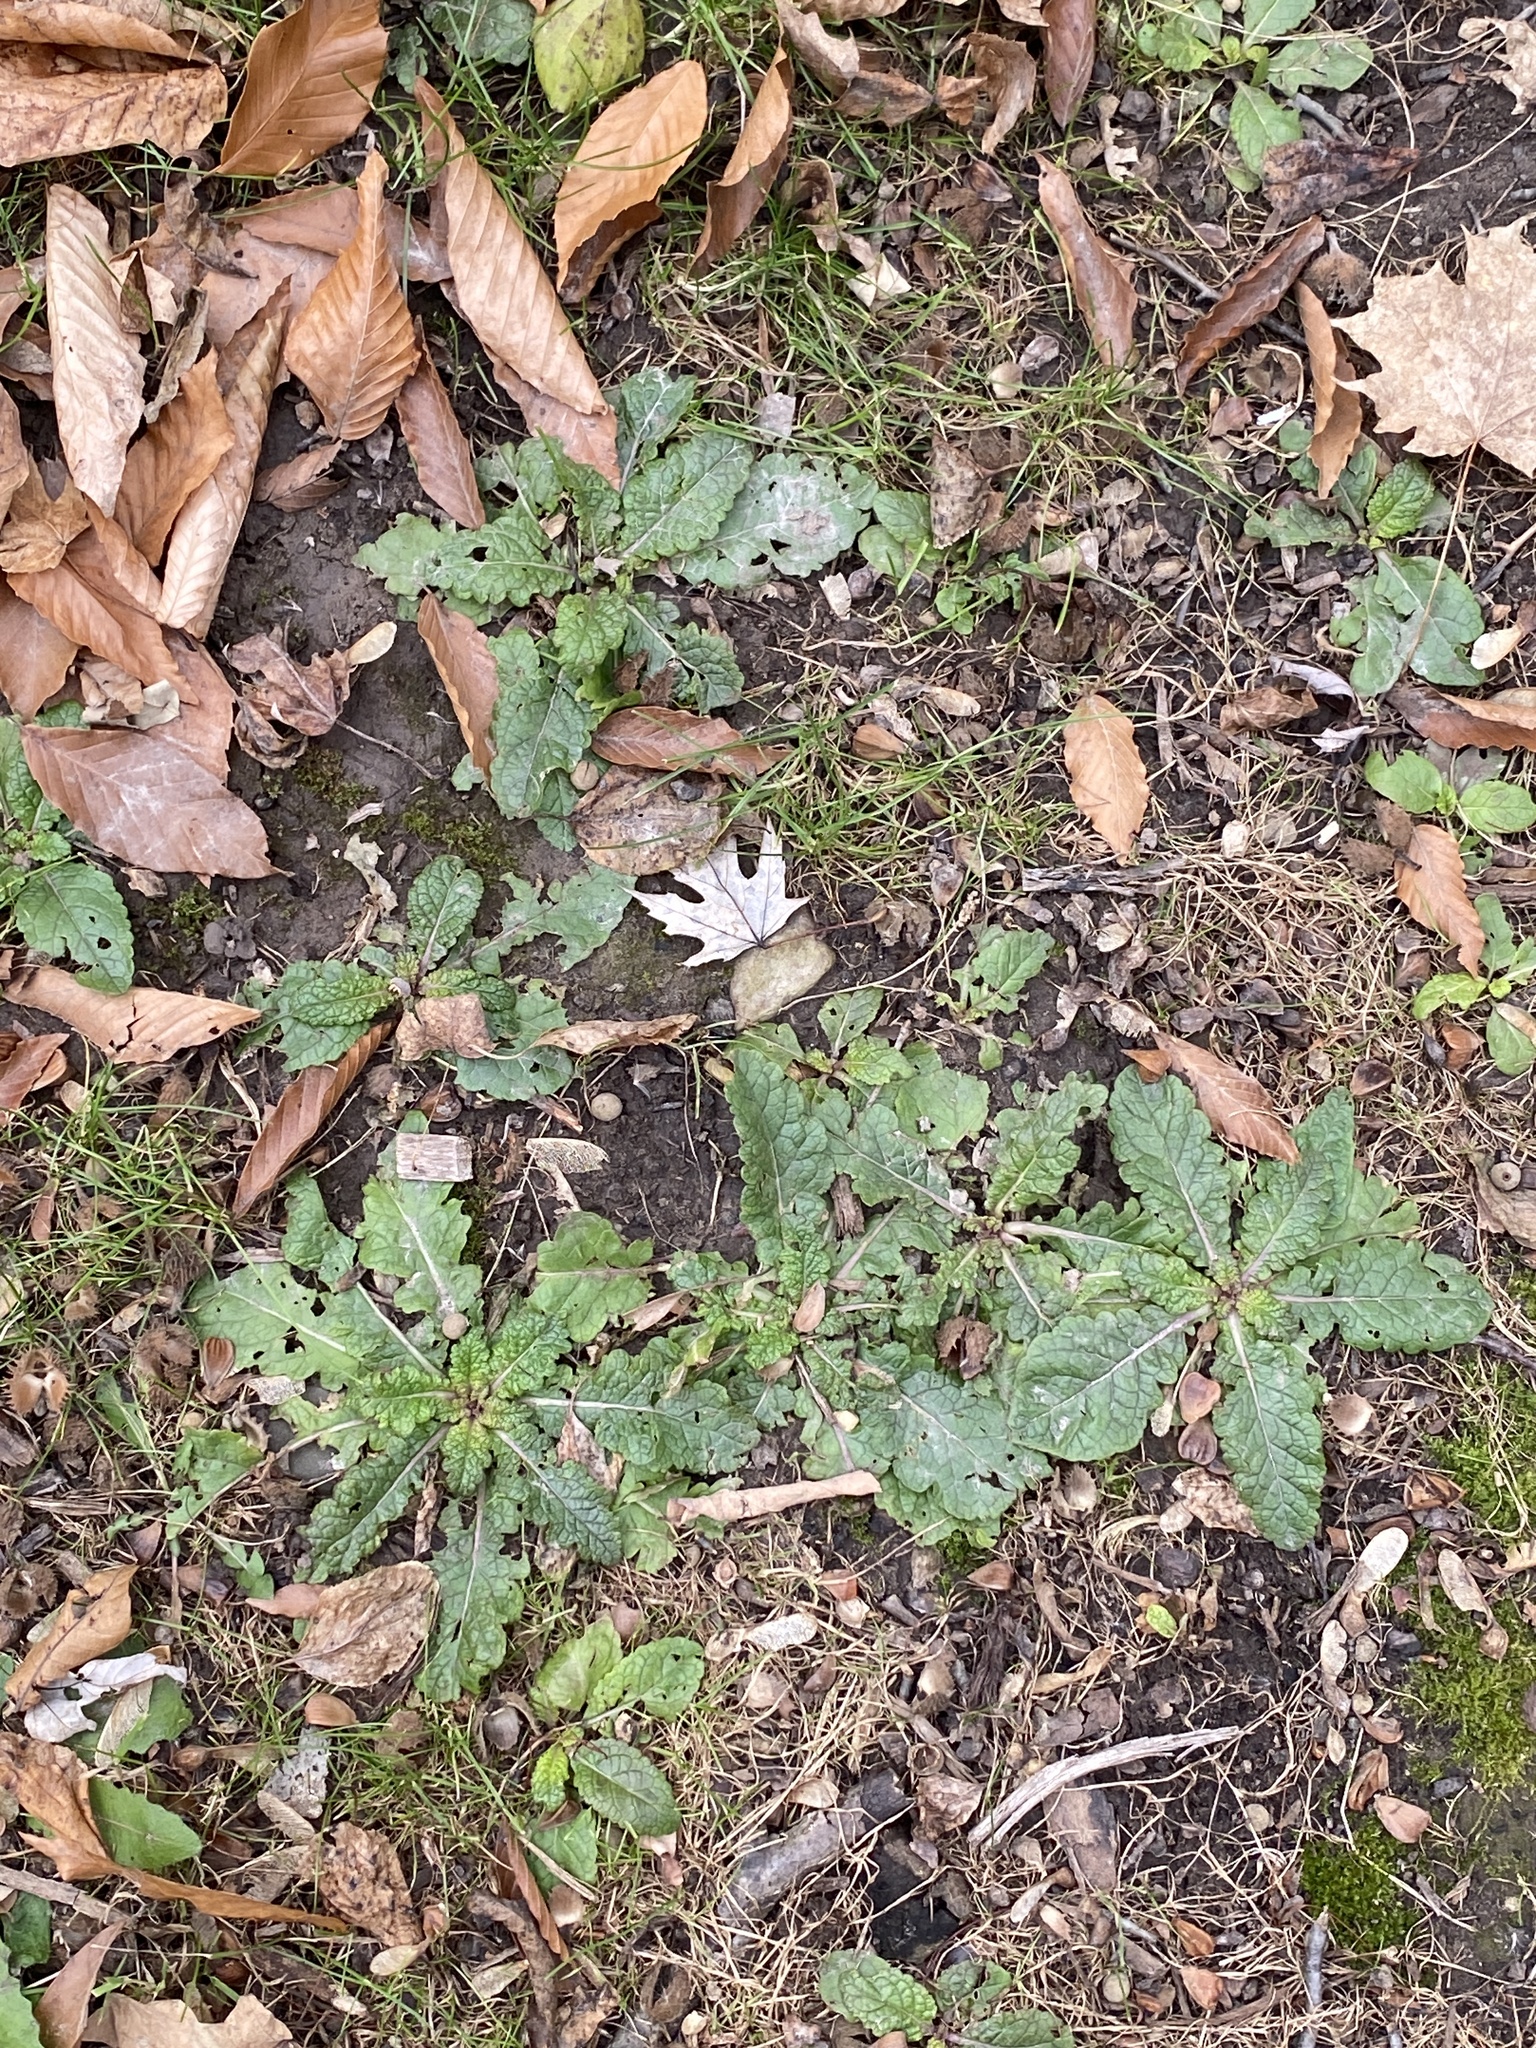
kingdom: Plantae
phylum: Tracheophyta
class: Magnoliopsida
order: Lamiales
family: Scrophulariaceae
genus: Verbascum
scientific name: Verbascum blattaria
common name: Moth mullein
